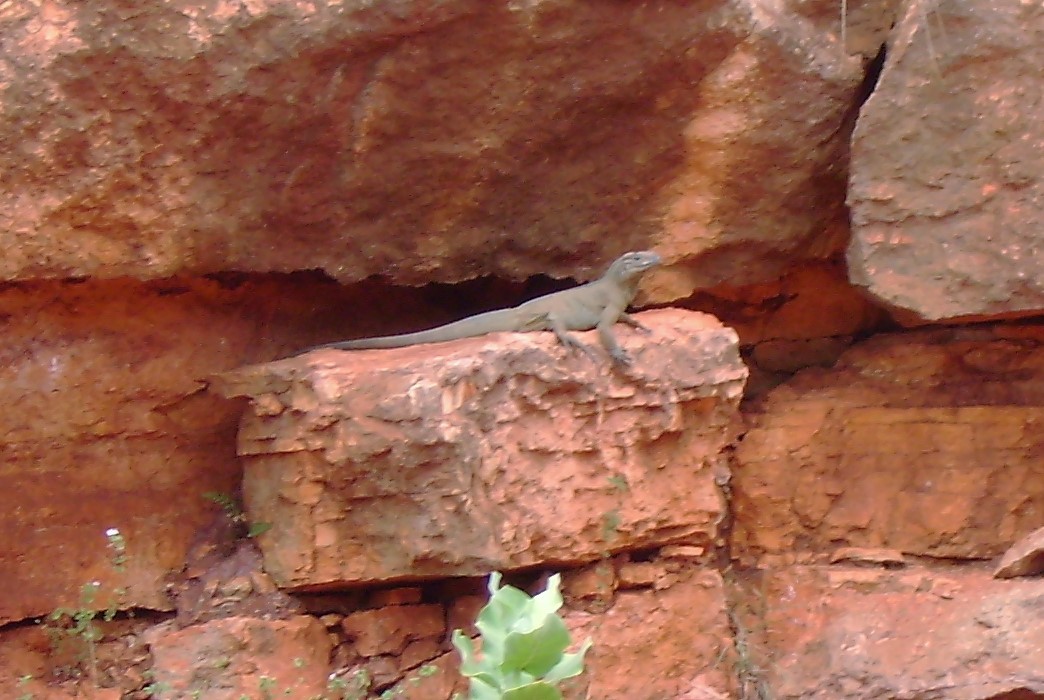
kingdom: Animalia
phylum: Chordata
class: Squamata
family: Iguanidae
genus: Cyclura
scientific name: Cyclura cornuta
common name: Hispaniolan rhinoceros iguana
